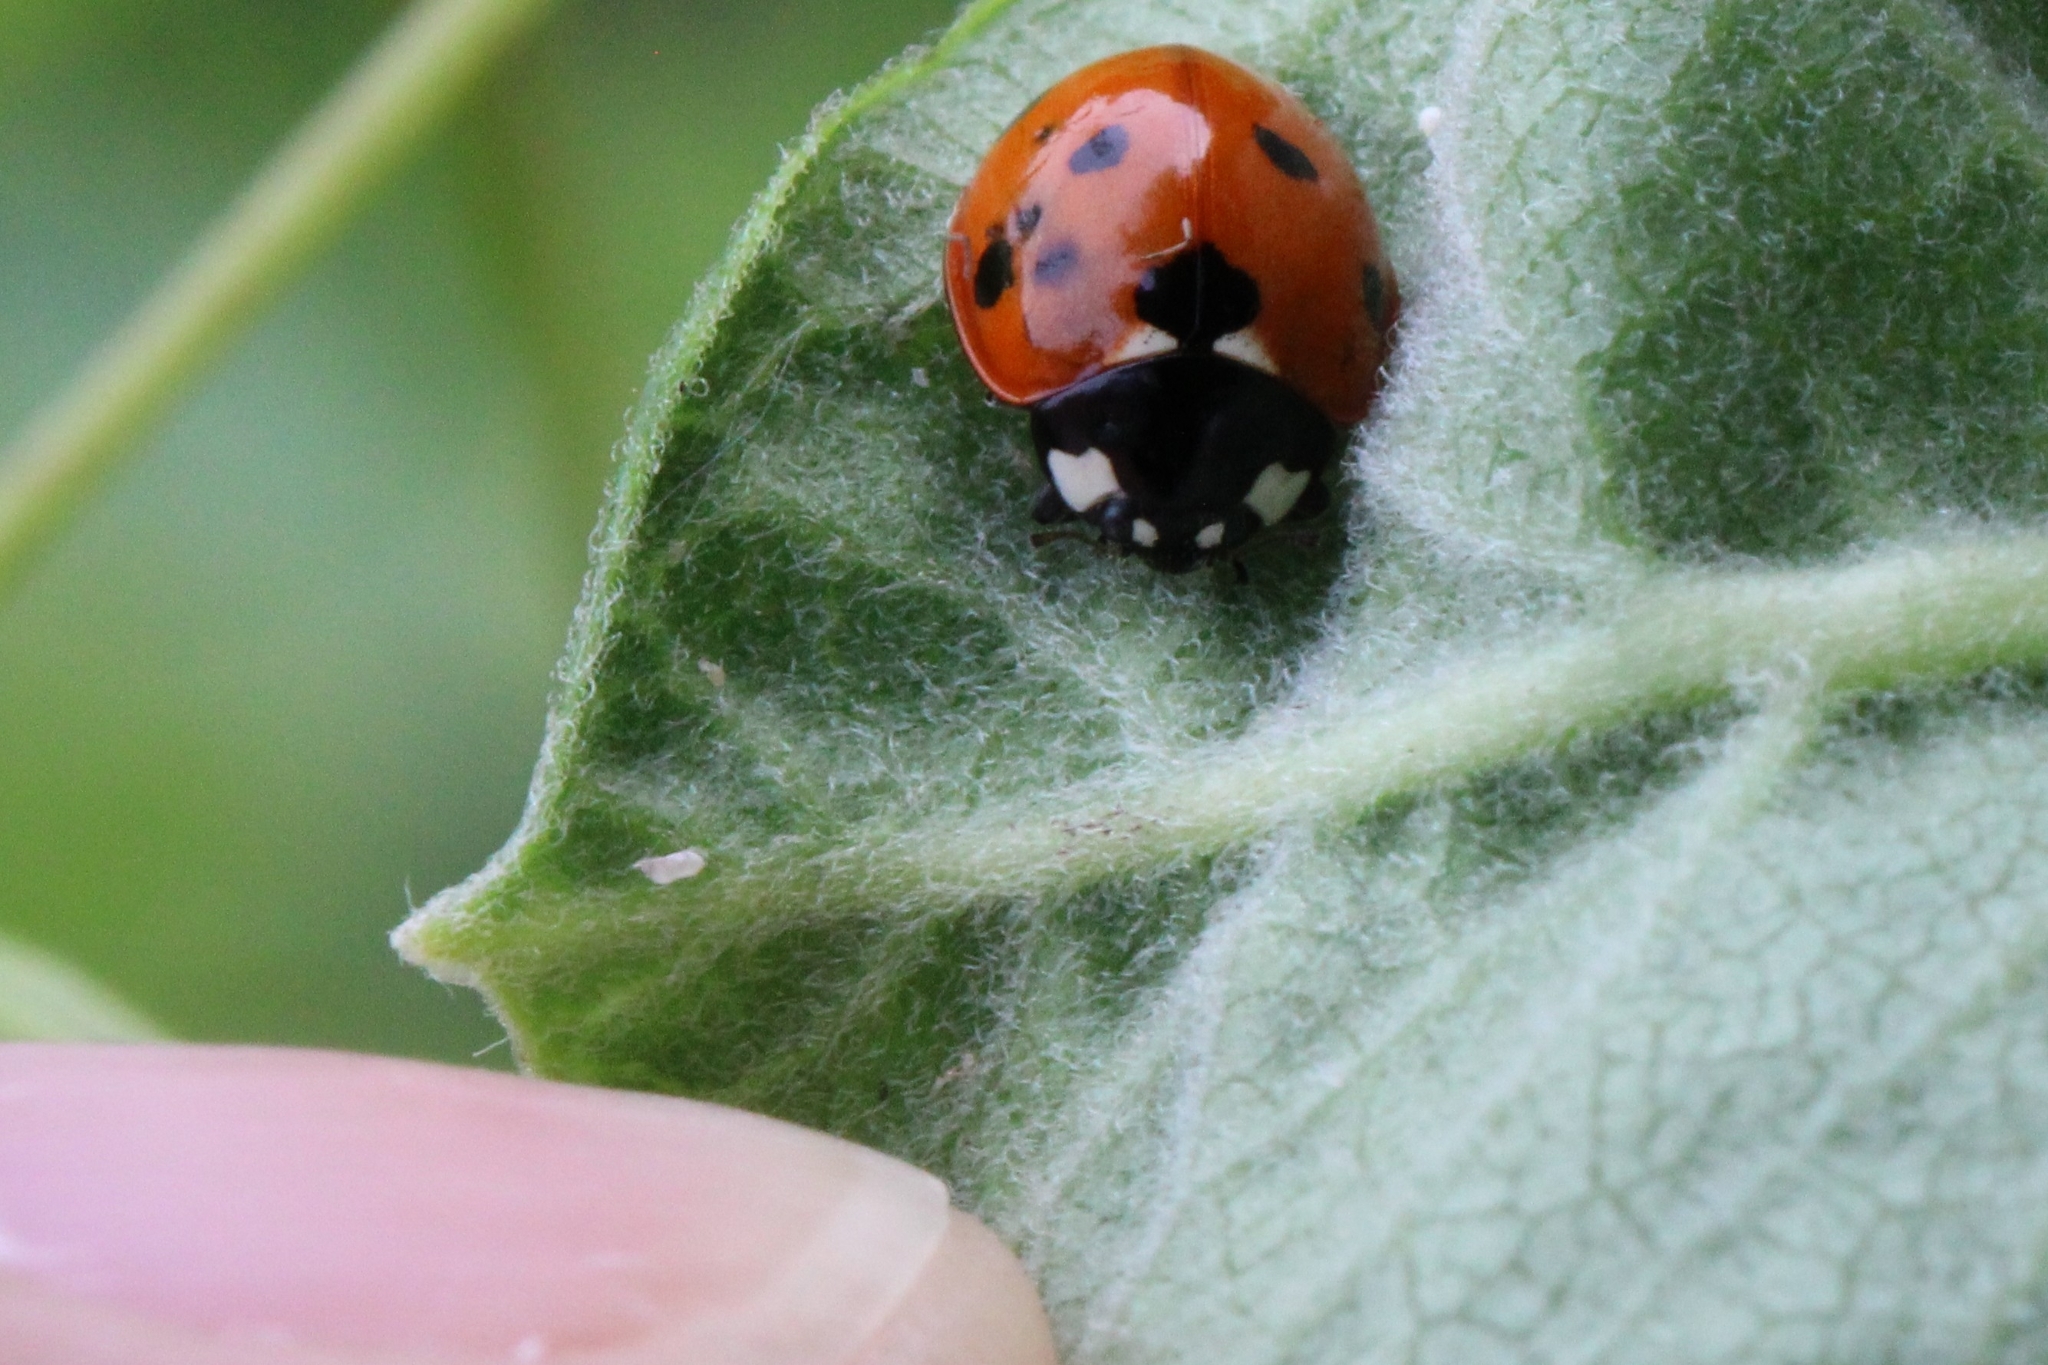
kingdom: Animalia
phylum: Arthropoda
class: Insecta
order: Coleoptera
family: Coccinellidae
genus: Coccinella
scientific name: Coccinella septempunctata
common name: Sevenspotted lady beetle
